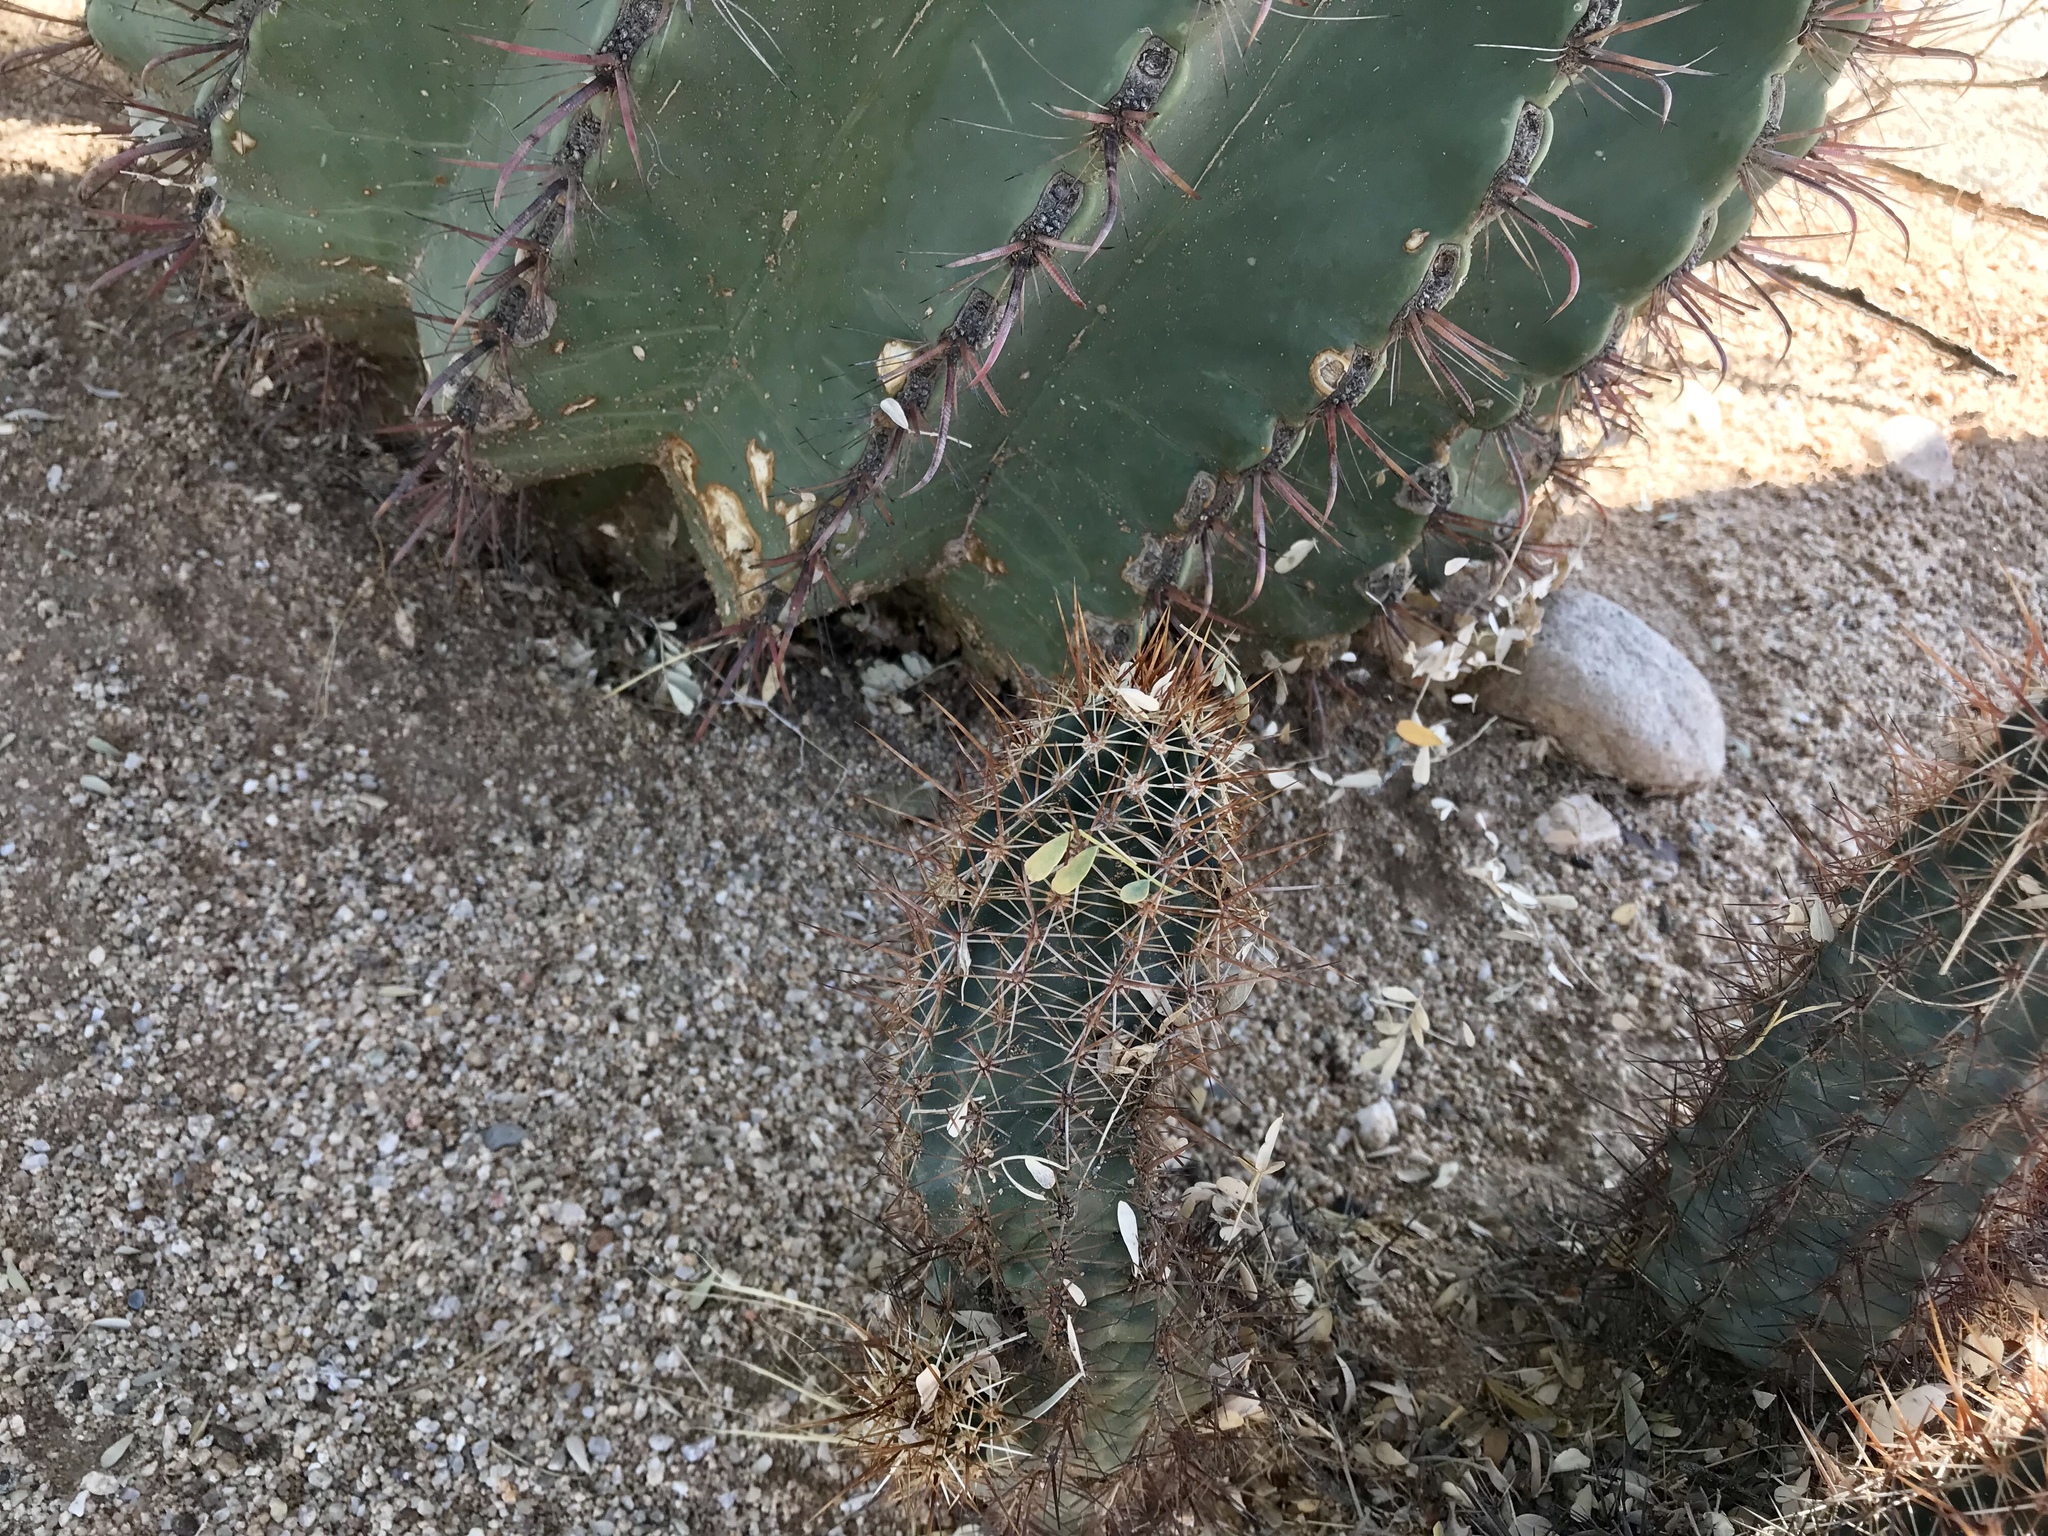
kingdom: Plantae
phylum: Tracheophyta
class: Magnoliopsida
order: Caryophyllales
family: Cactaceae
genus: Echinocereus
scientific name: Echinocereus fasciculatus
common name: Bundle hedgehog
